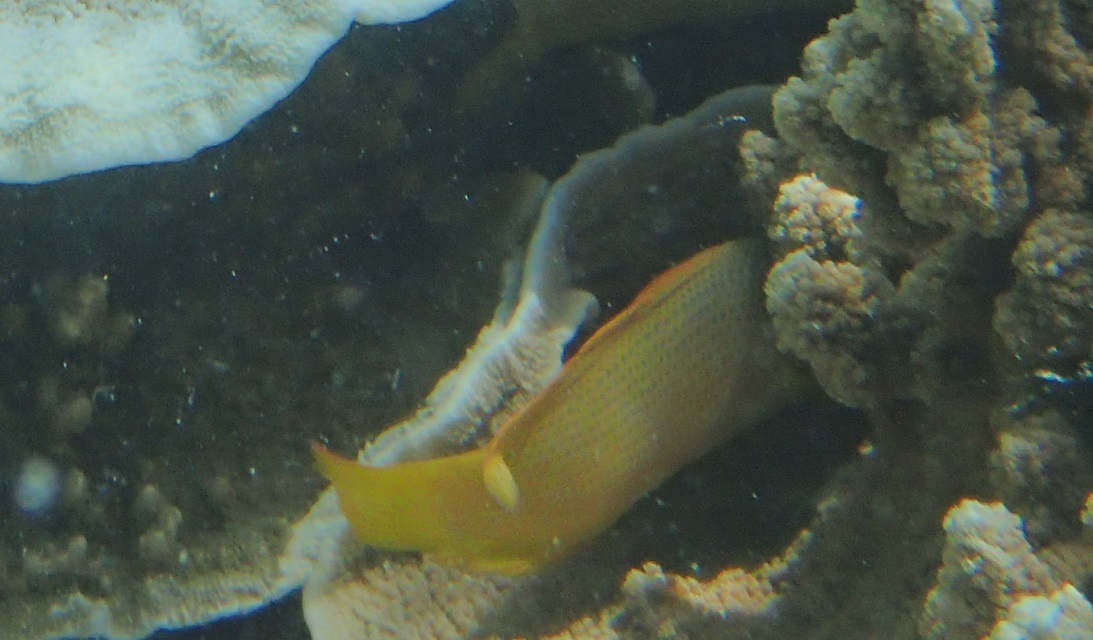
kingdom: Animalia
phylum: Chordata
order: Perciformes
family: Pseudochromidae
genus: Pseudochromis
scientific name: Pseudochromis fuscus
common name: Brown dottyback
